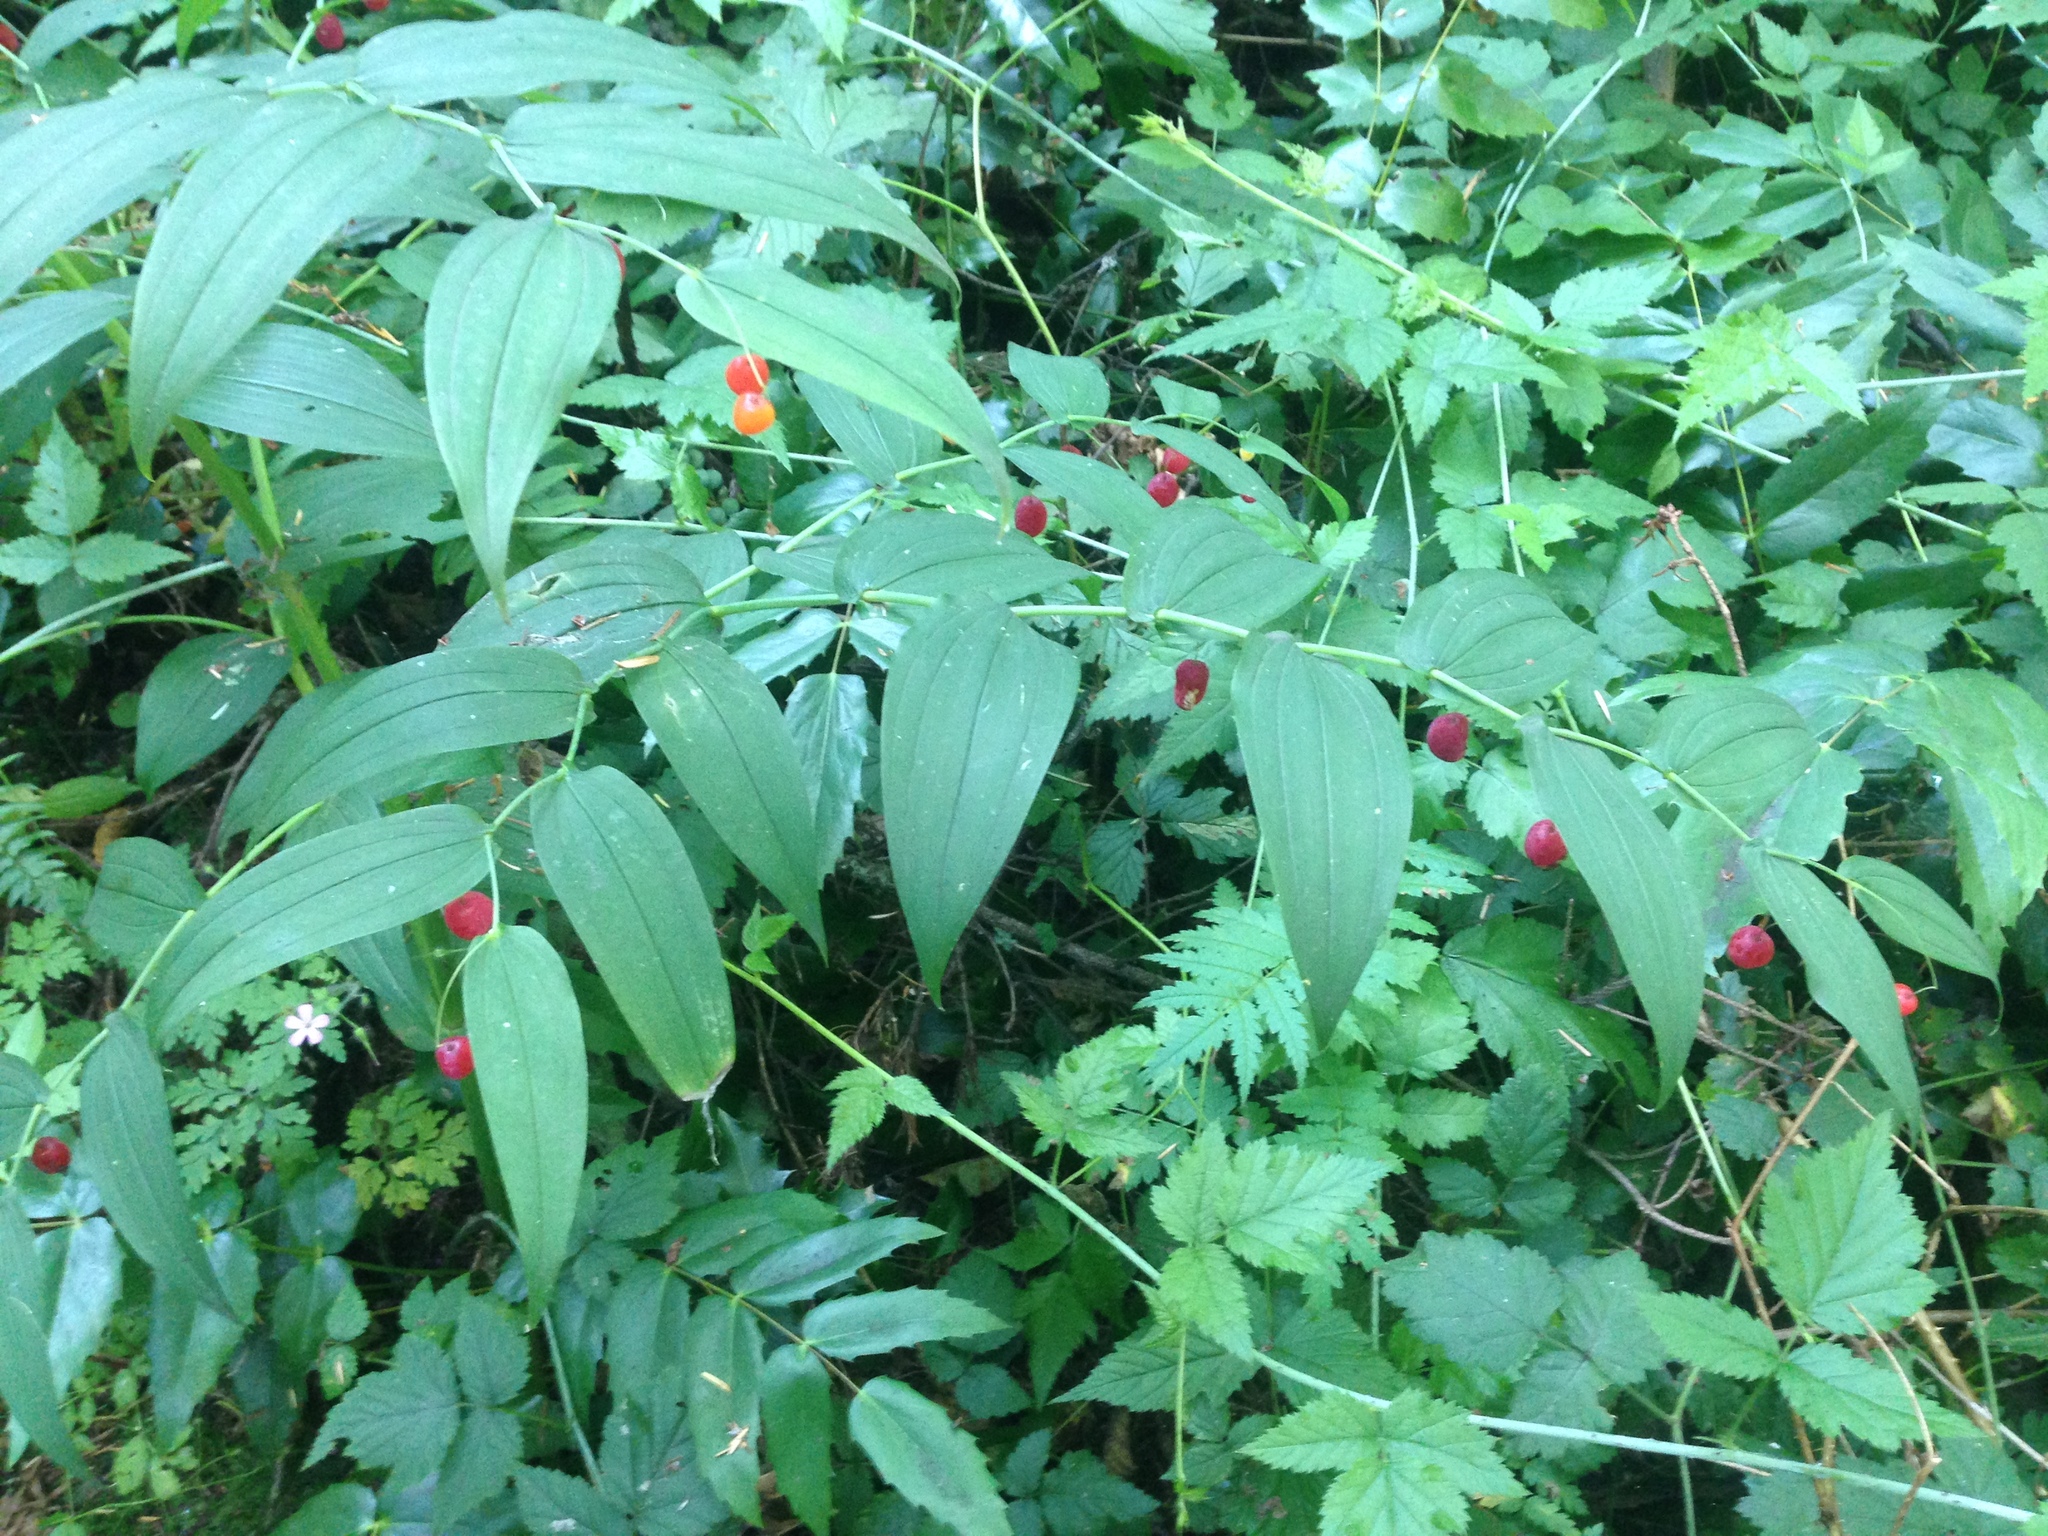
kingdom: Plantae
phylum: Tracheophyta
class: Liliopsida
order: Liliales
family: Liliaceae
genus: Streptopus
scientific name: Streptopus amplexifolius
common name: Clasp twisted stalk
